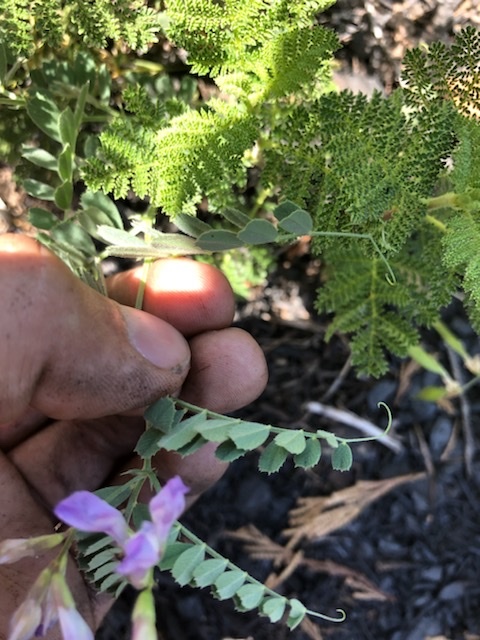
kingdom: Plantae
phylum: Tracheophyta
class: Magnoliopsida
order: Fabales
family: Fabaceae
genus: Vicia
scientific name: Vicia americana
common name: American vetch
